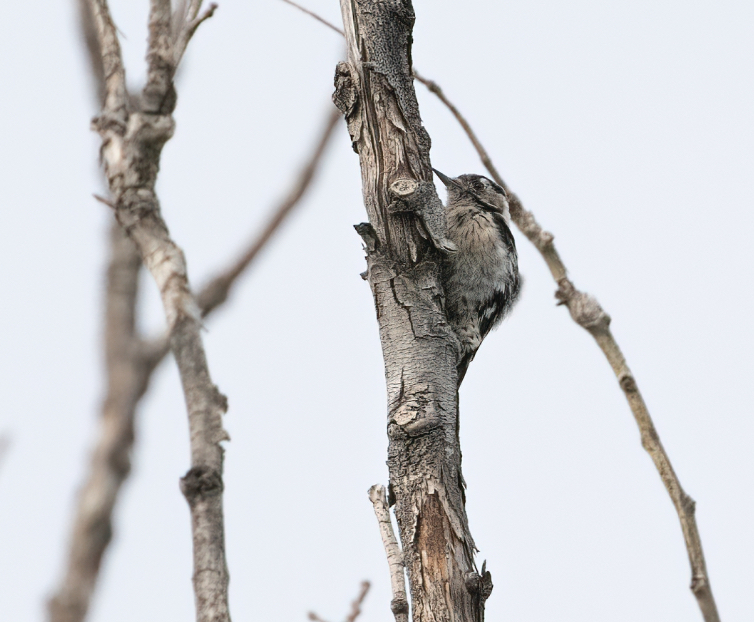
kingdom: Animalia
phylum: Chordata
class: Aves
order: Piciformes
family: Picidae
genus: Dryobates
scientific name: Dryobates minor
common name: Lesser spotted woodpecker
